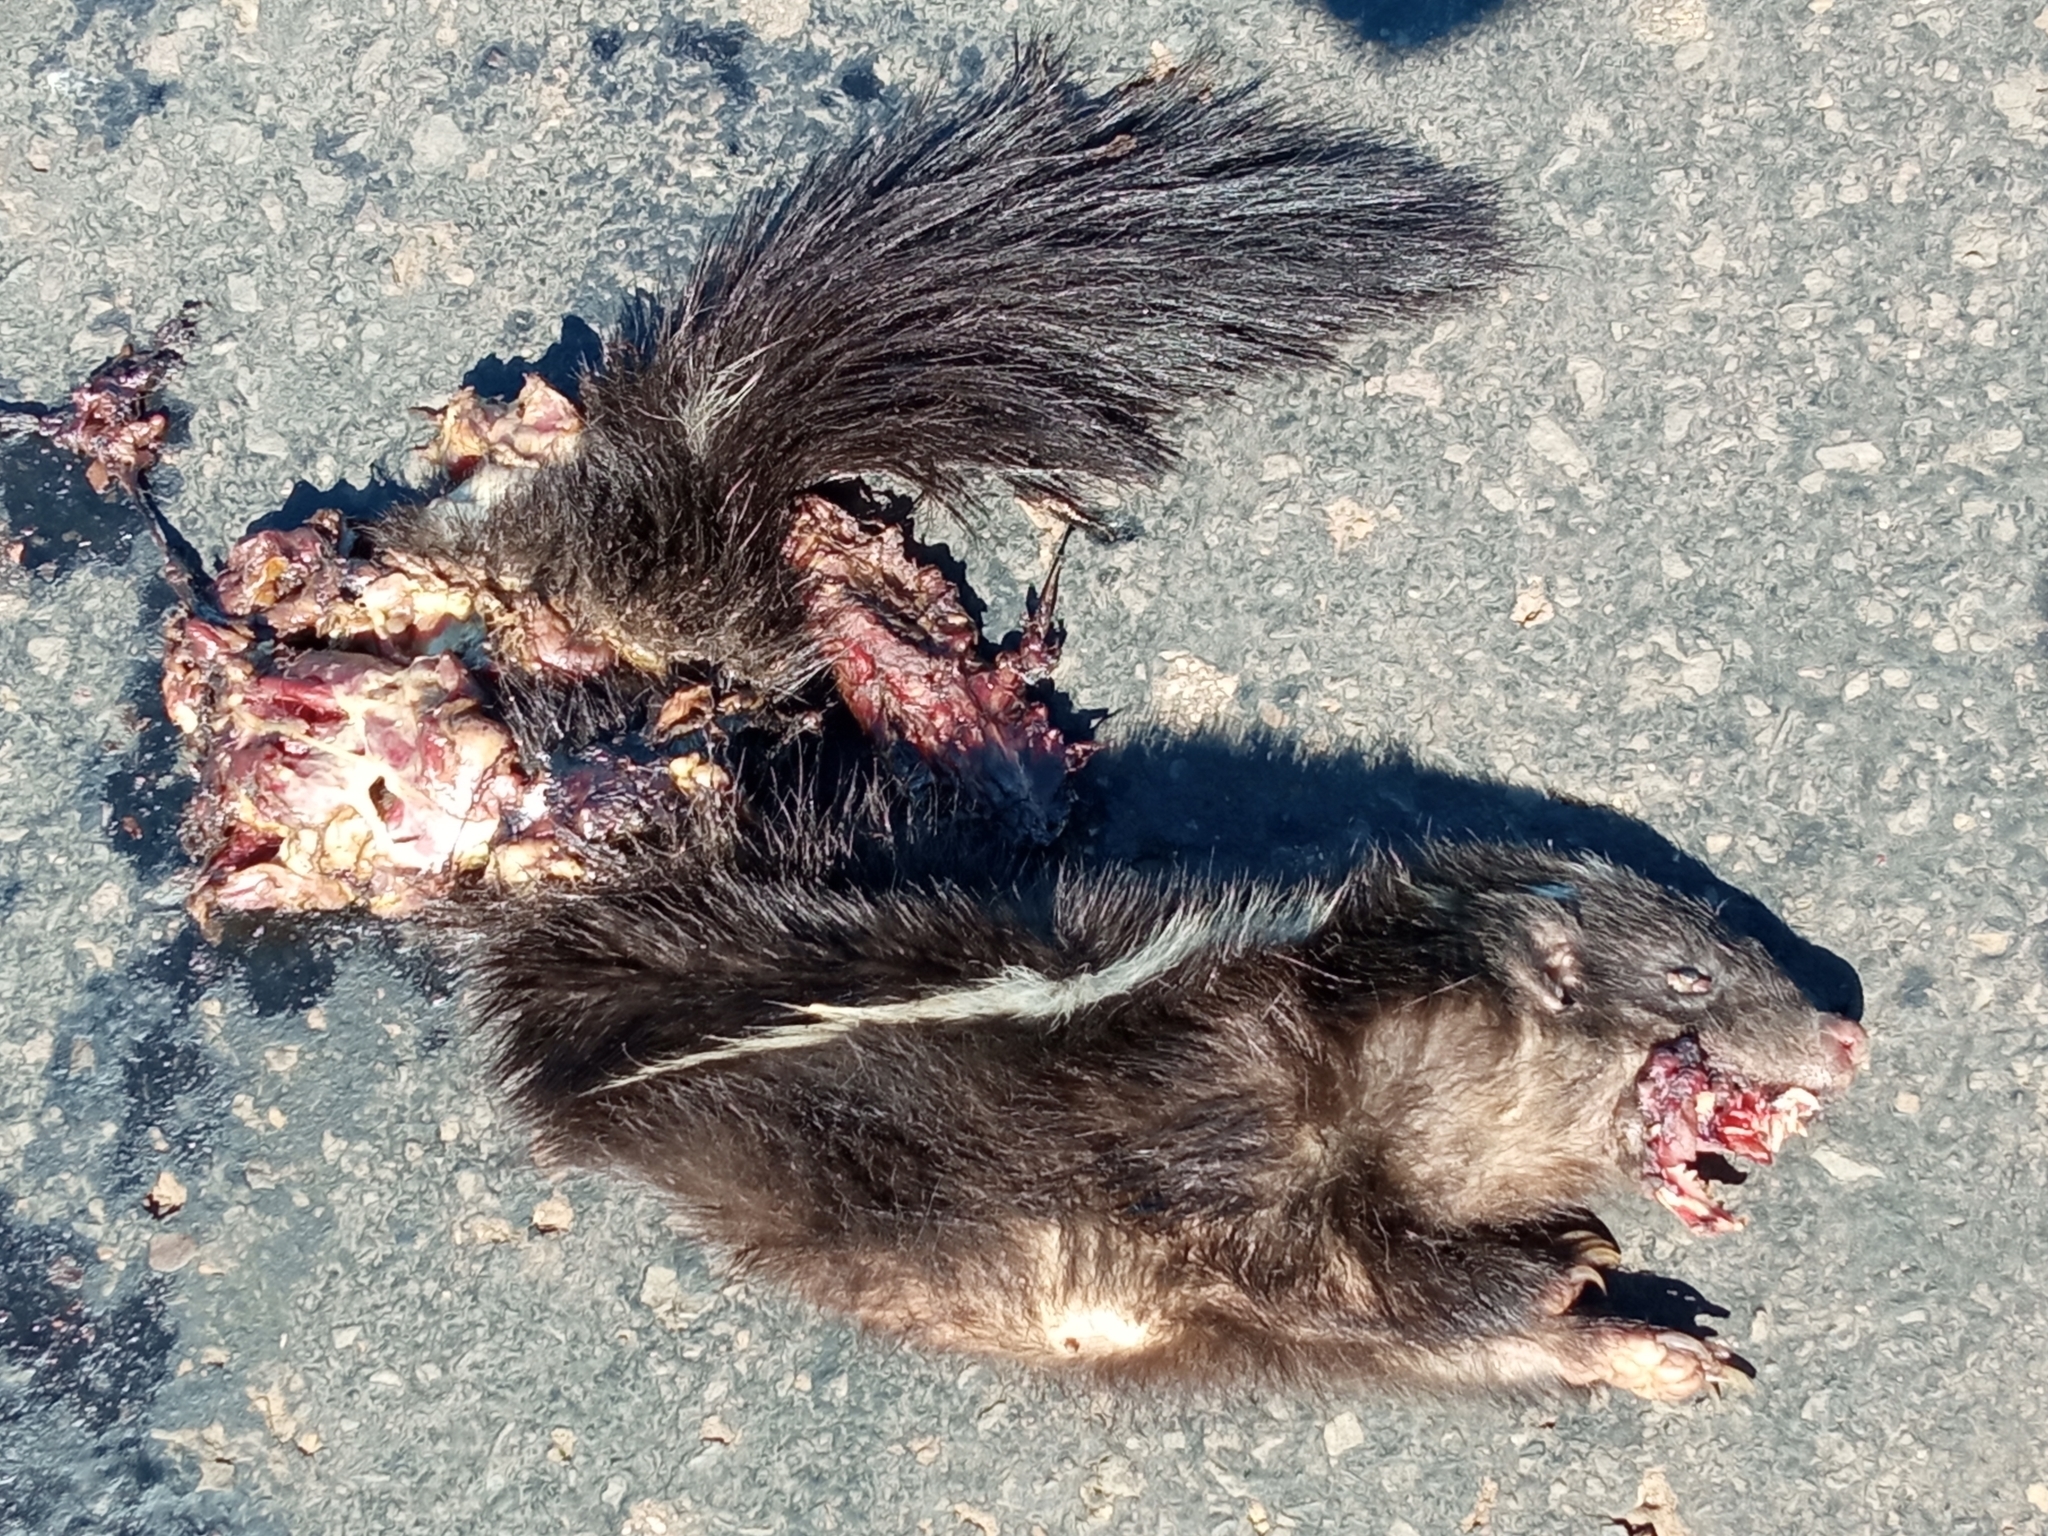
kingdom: Animalia
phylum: Chordata
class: Mammalia
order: Carnivora
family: Mephitidae
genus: Conepatus
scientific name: Conepatus chinga
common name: Molina's hog-nosed skunk
